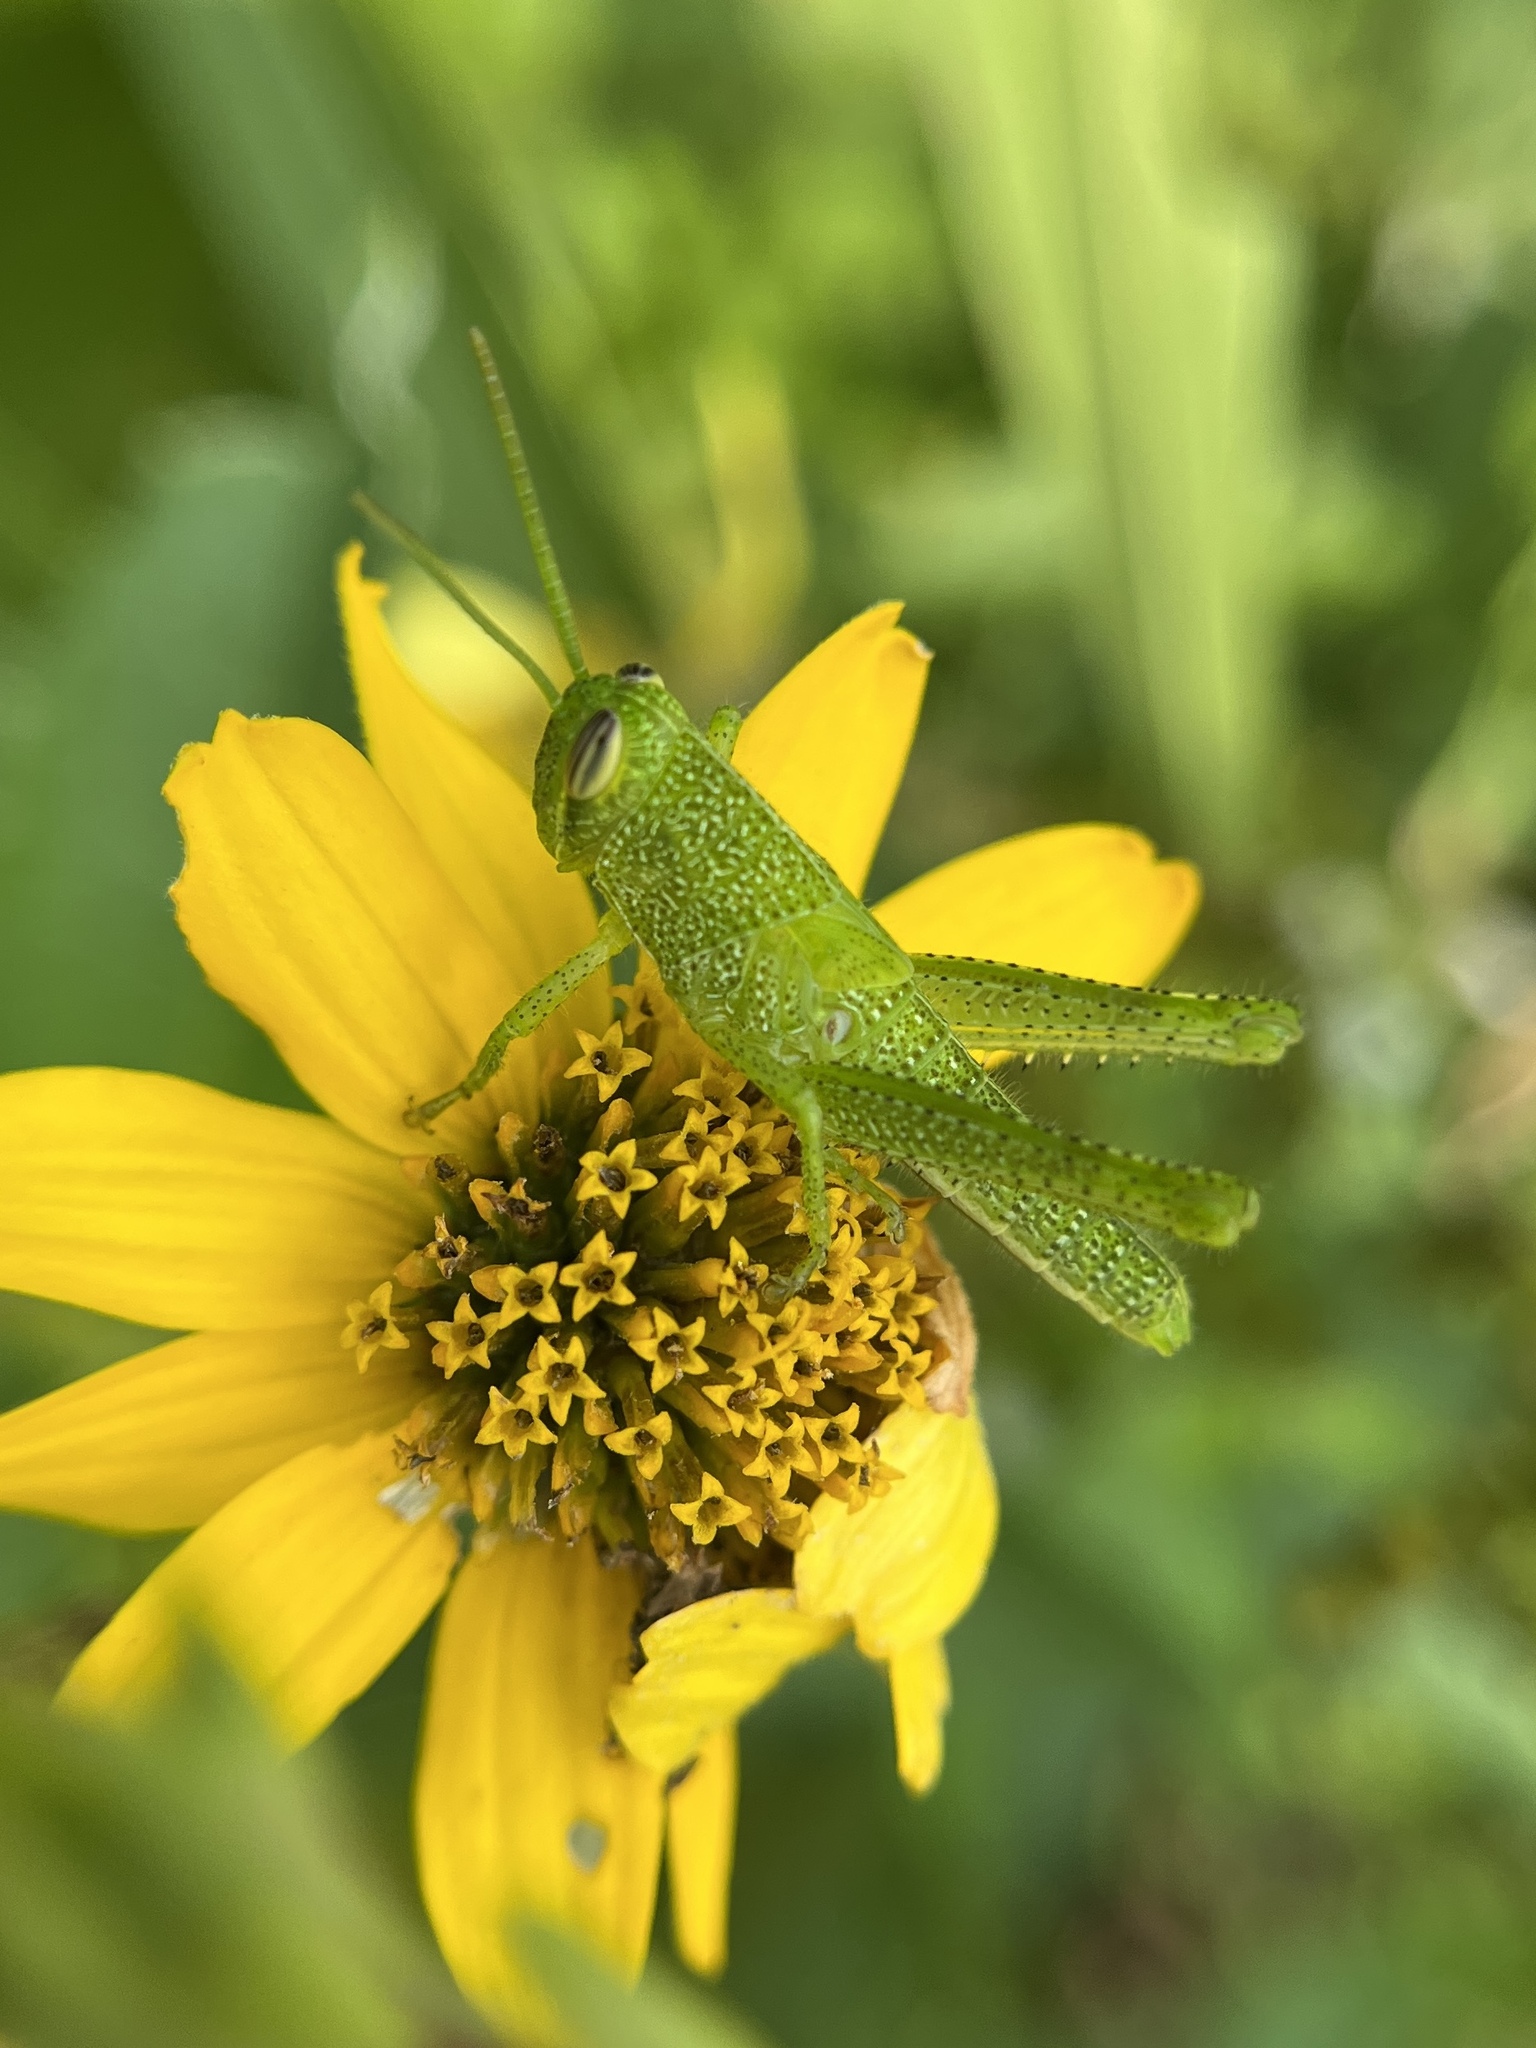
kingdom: Animalia
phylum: Arthropoda
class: Insecta
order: Orthoptera
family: Acrididae
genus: Schistocerca
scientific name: Schistocerca obscura
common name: Obscure bird grasshopper
